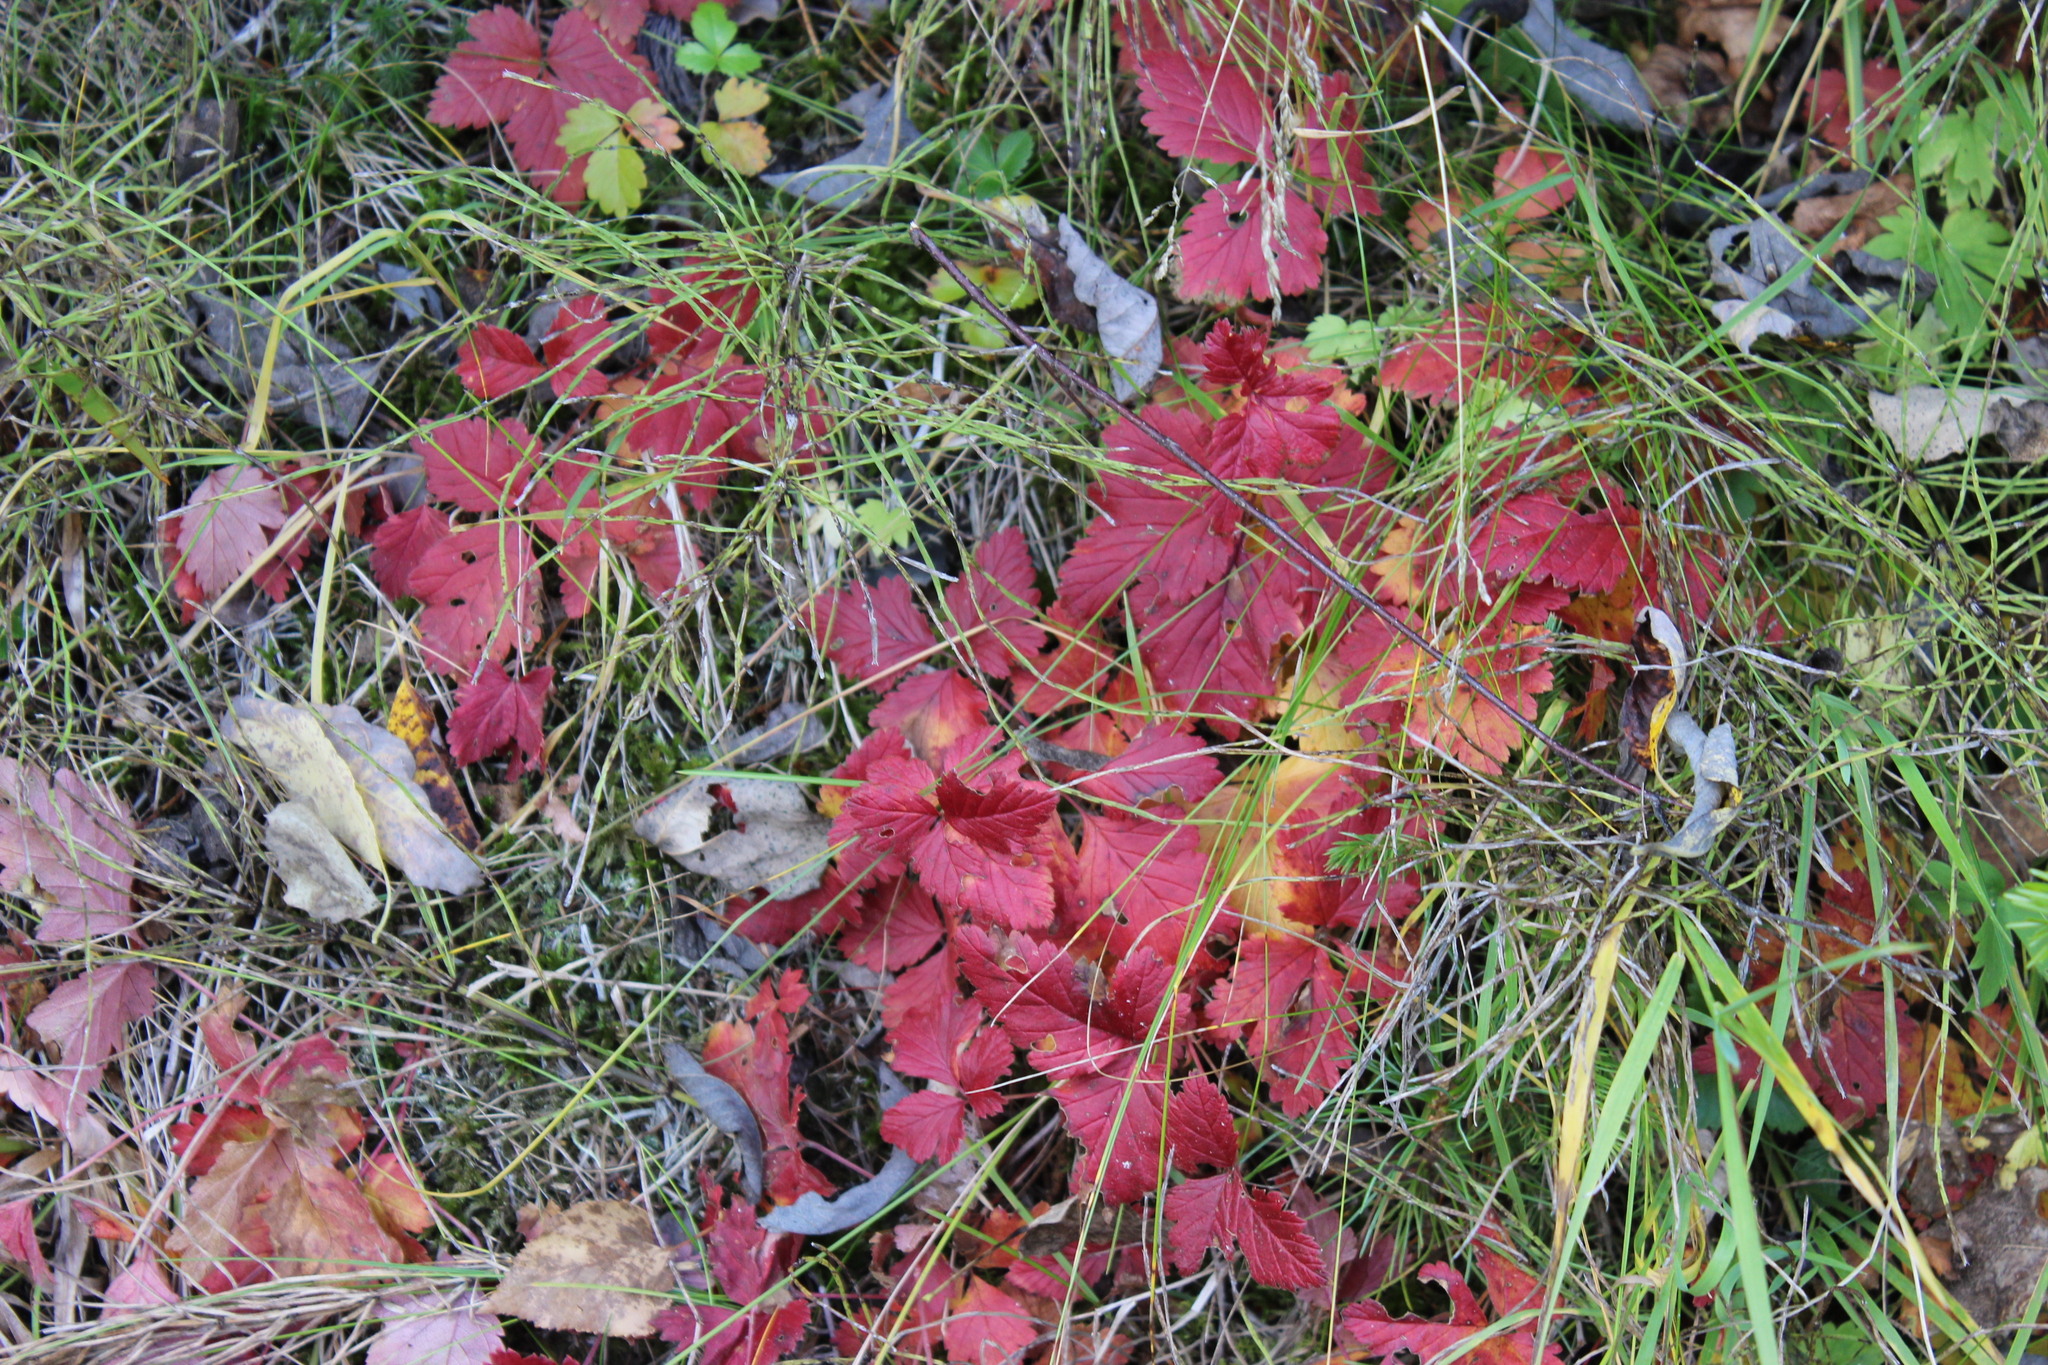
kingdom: Plantae
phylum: Tracheophyta
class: Magnoliopsida
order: Rosales
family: Rosaceae
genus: Rubus
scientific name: Rubus arcticus
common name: Arctic bramble
